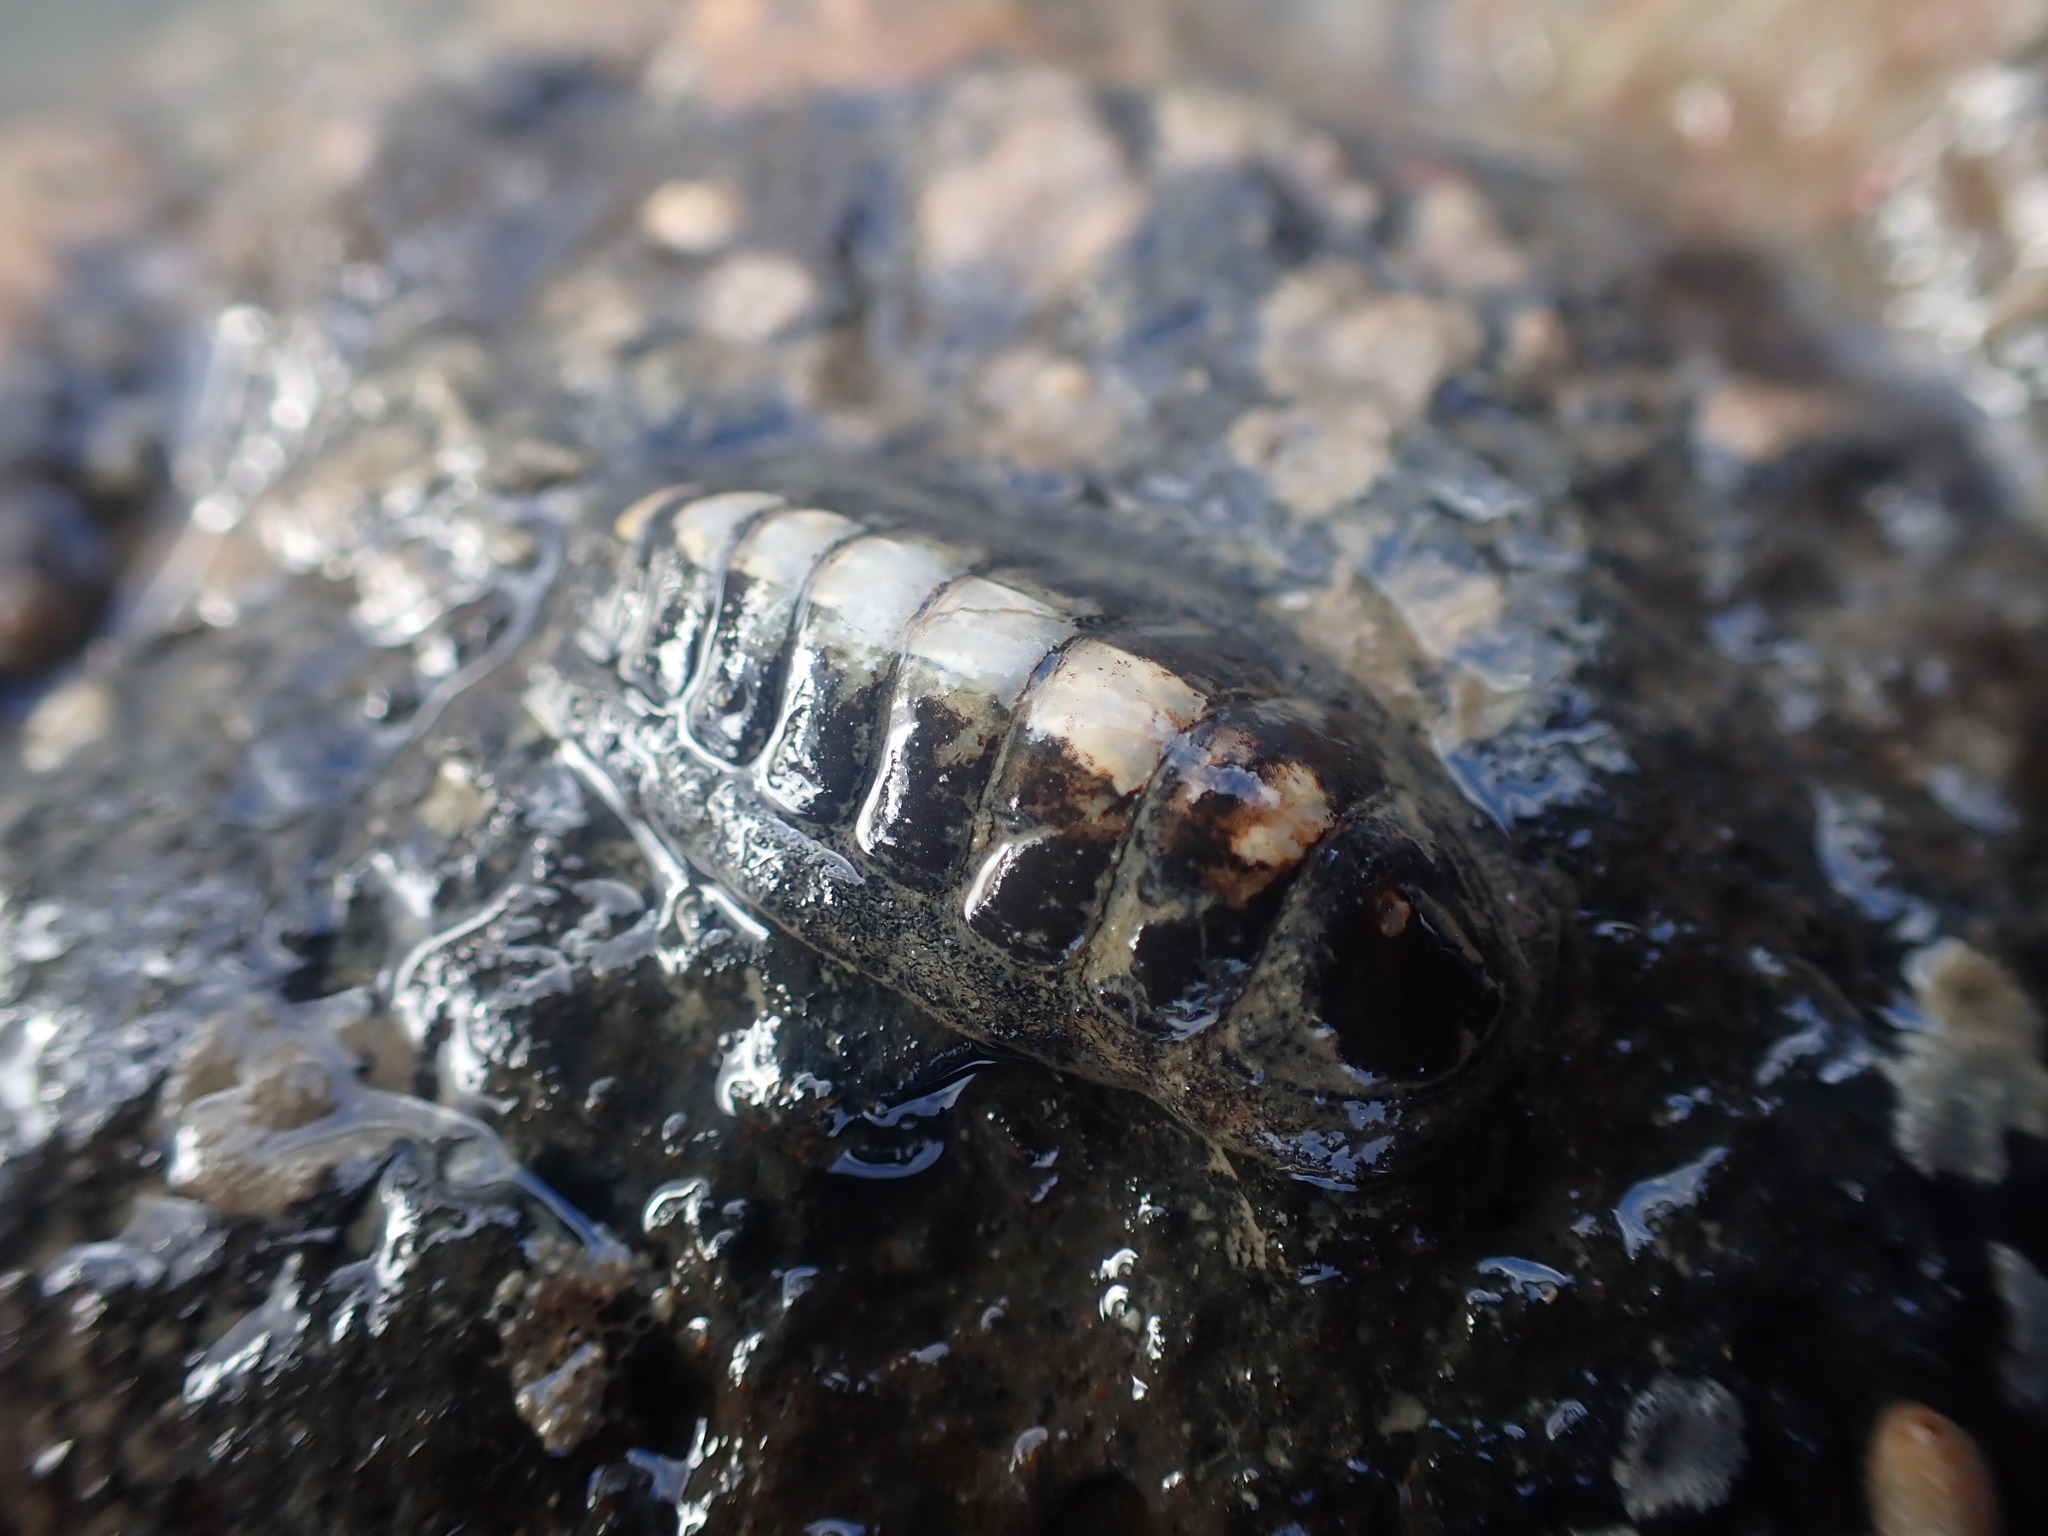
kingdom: Animalia
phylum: Mollusca
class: Polyplacophora
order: Chitonida
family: Ischnochitonidae
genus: Ischnochiton
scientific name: Ischnochiton maorianus
